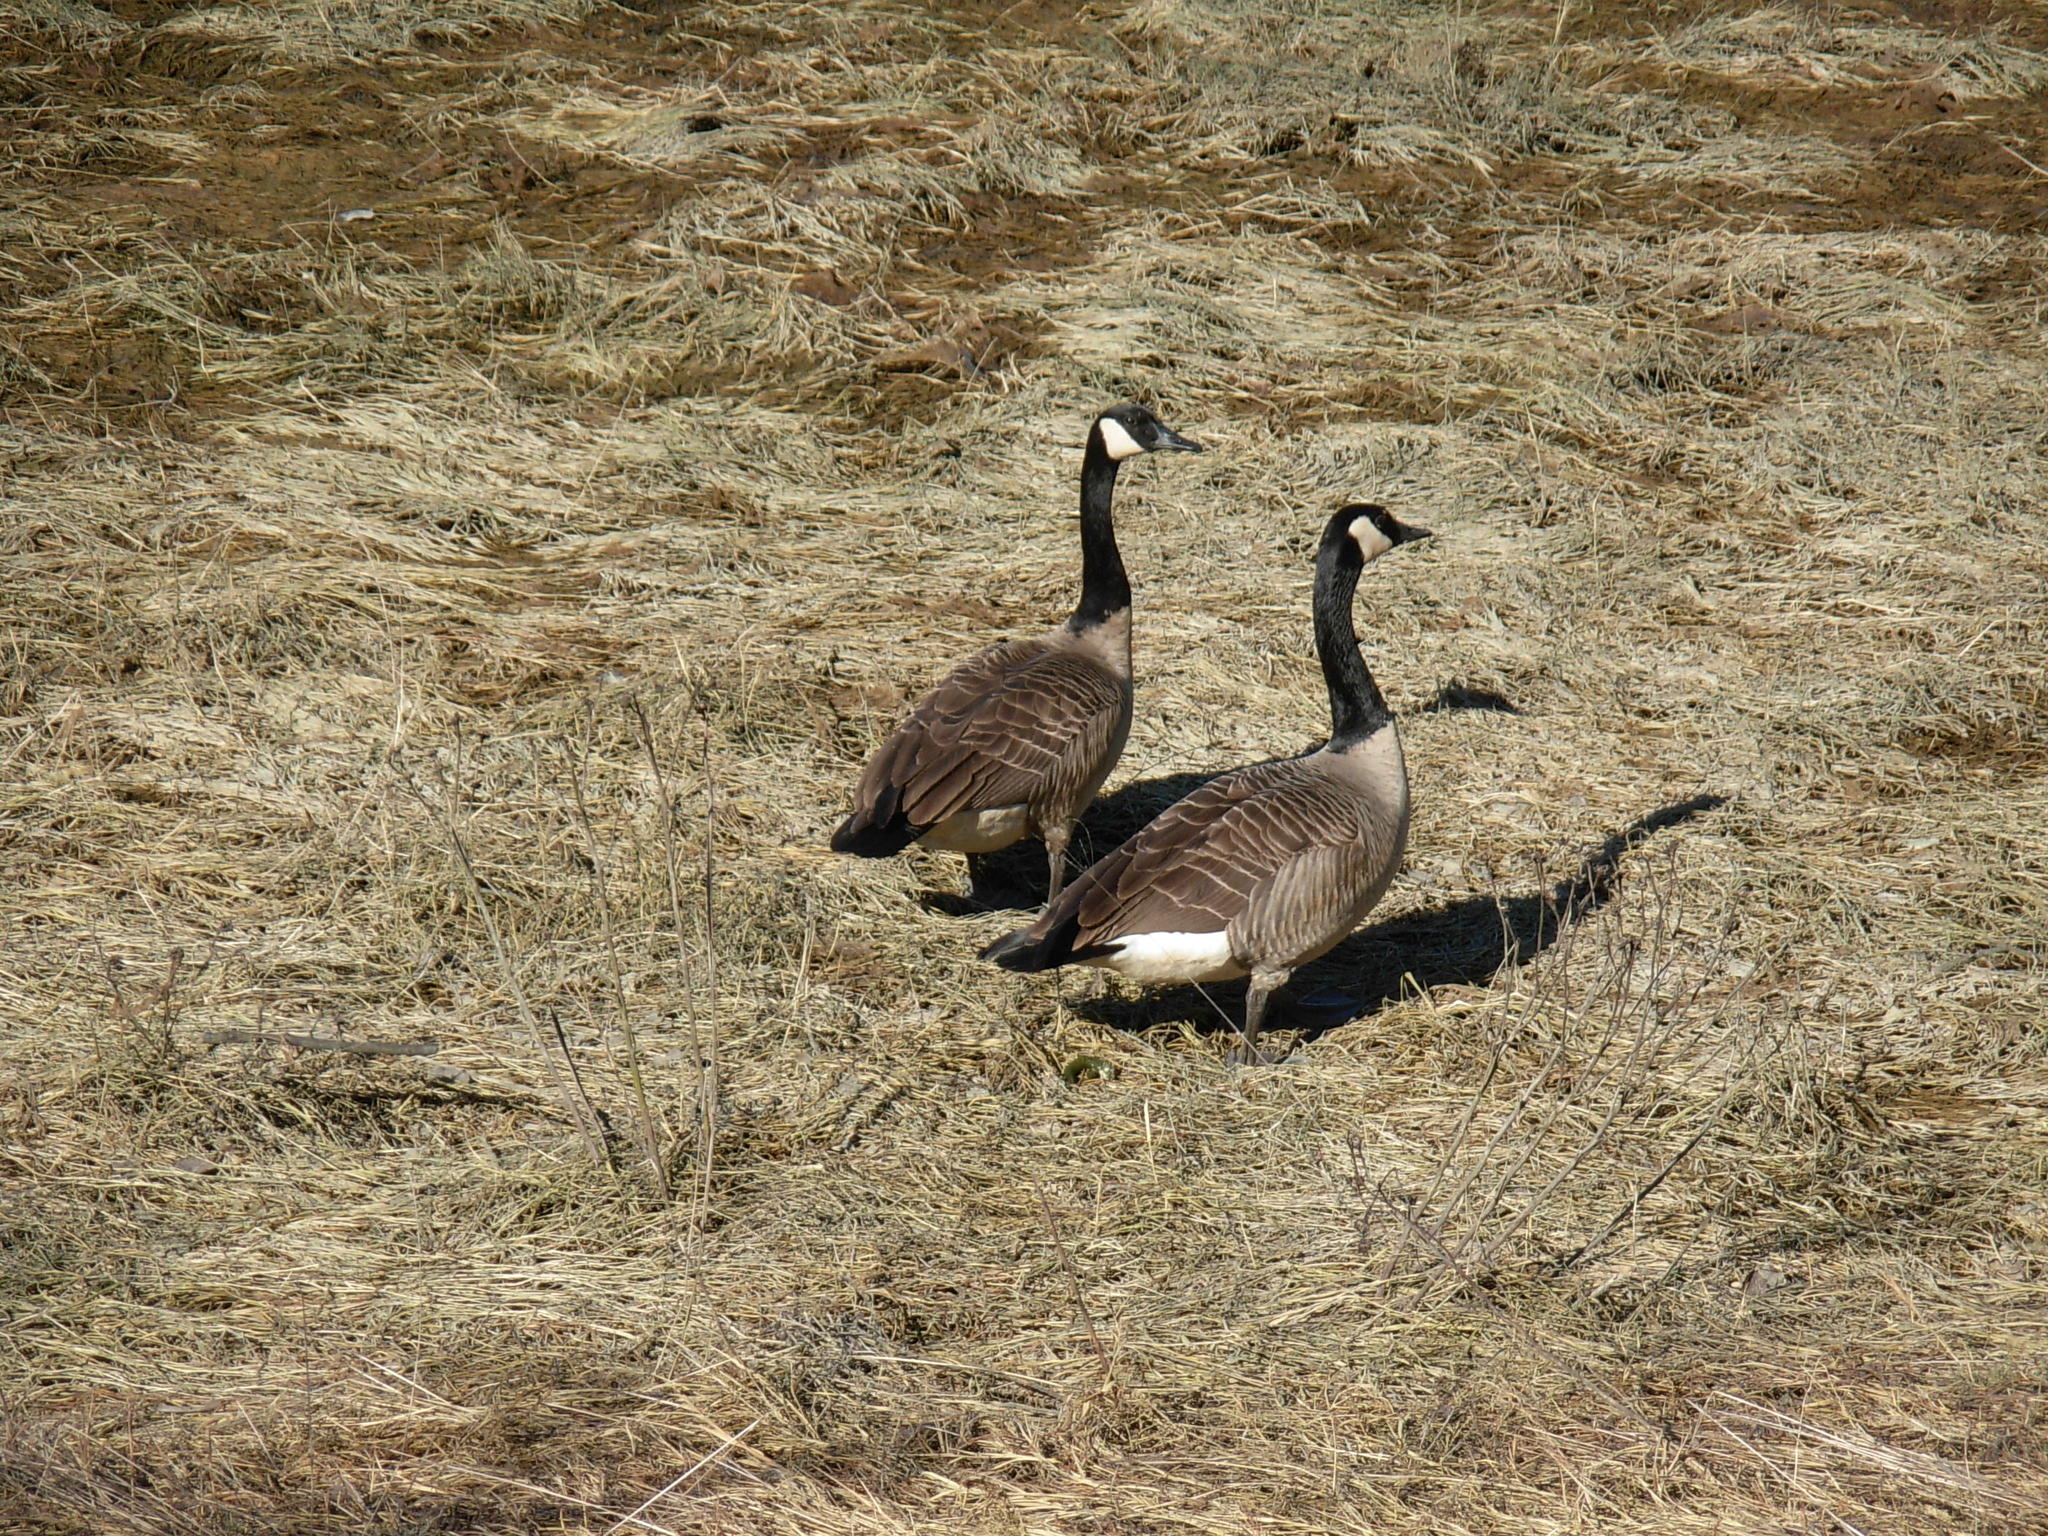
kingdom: Animalia
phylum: Chordata
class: Aves
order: Anseriformes
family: Anatidae
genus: Branta
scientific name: Branta canadensis
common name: Canada goose
